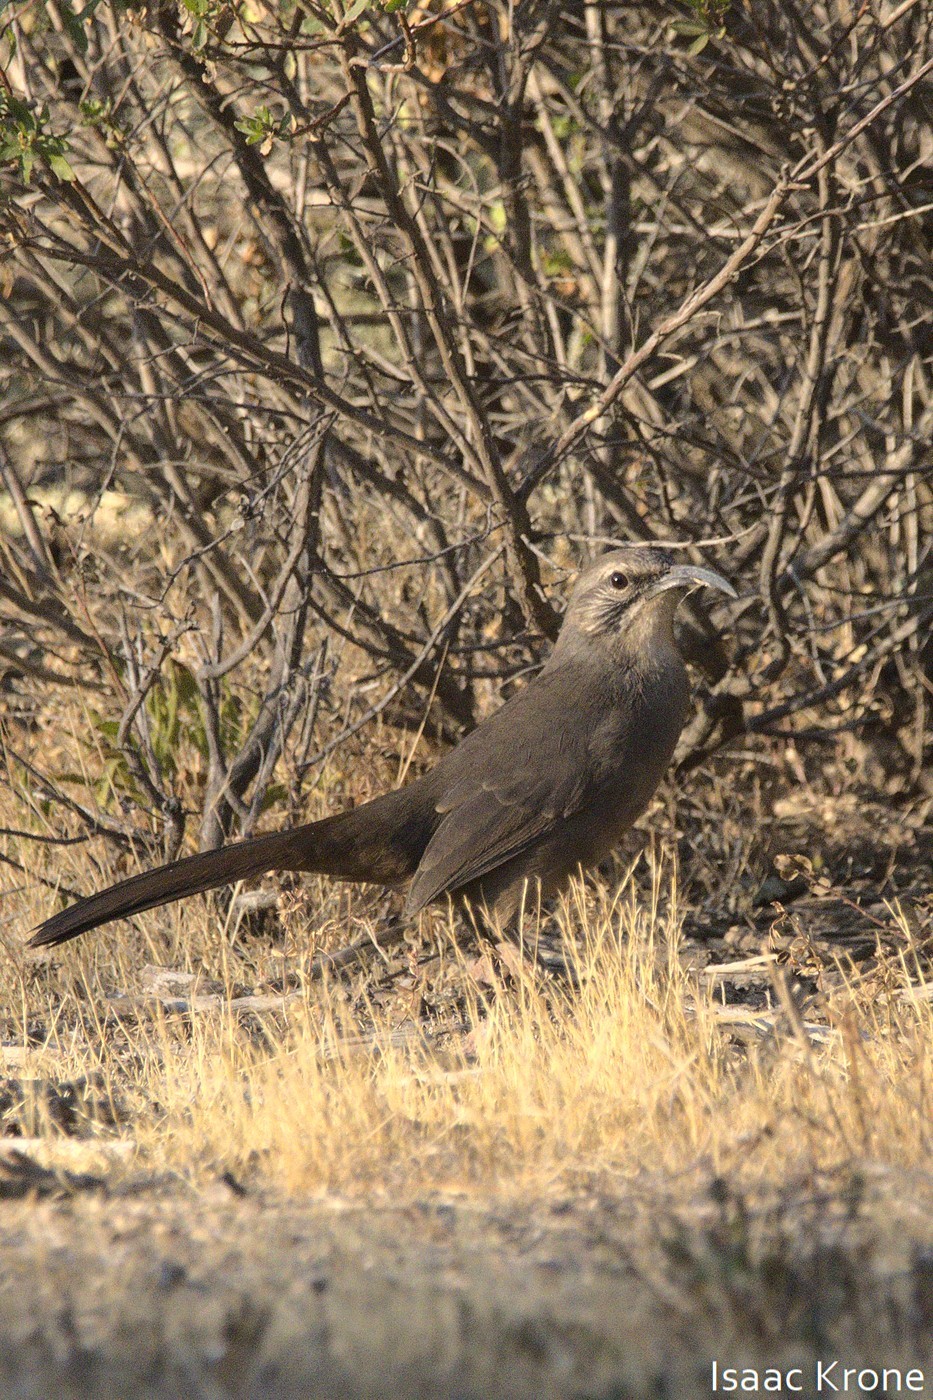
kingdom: Animalia
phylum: Chordata
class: Aves
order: Passeriformes
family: Mimidae
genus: Toxostoma
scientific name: Toxostoma redivivum
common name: California thrasher
